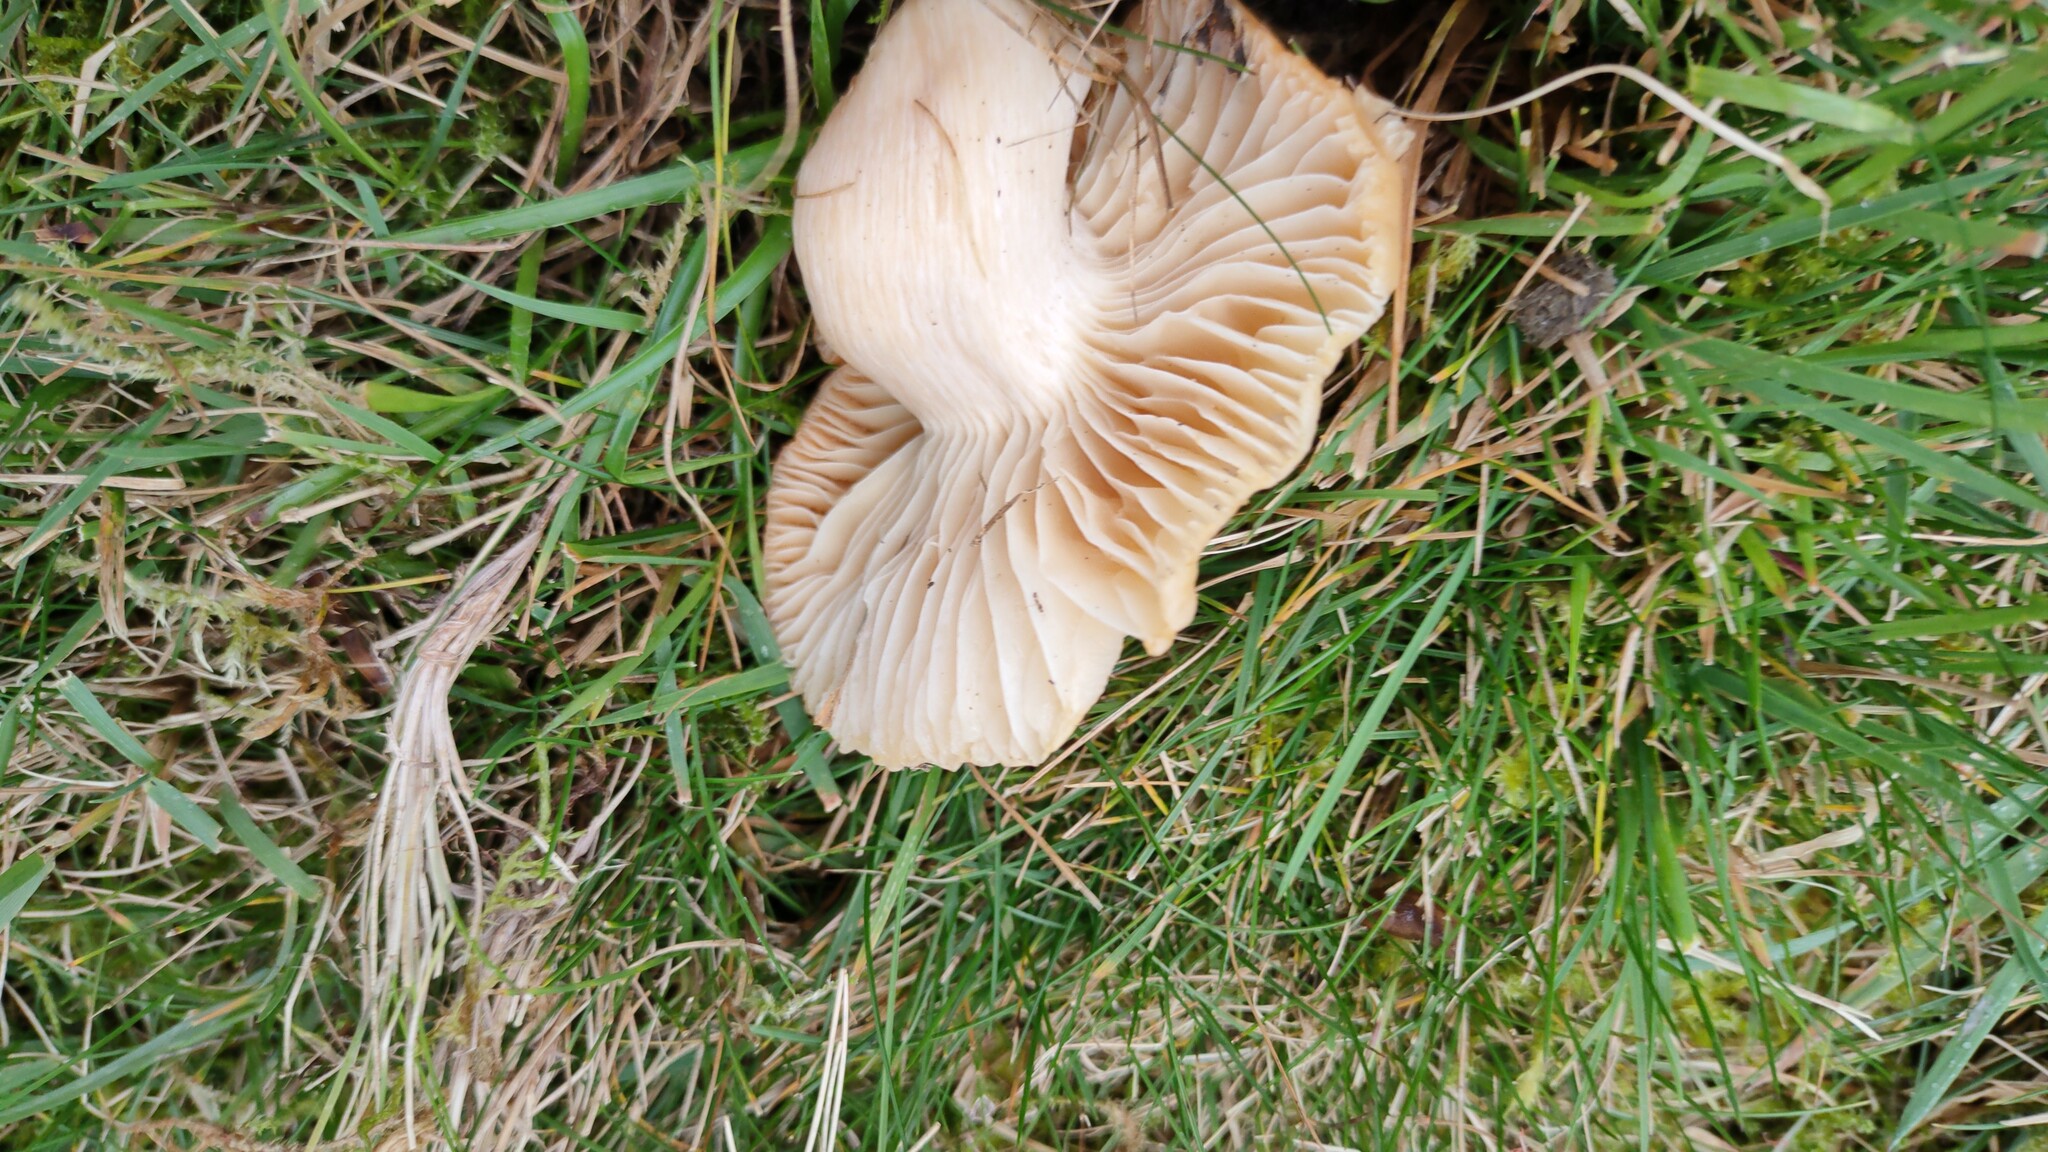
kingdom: Fungi
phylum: Basidiomycota
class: Agaricomycetes
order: Agaricales
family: Hygrophoraceae
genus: Cuphophyllus
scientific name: Cuphophyllus pratensis
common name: Meadow waxcap
